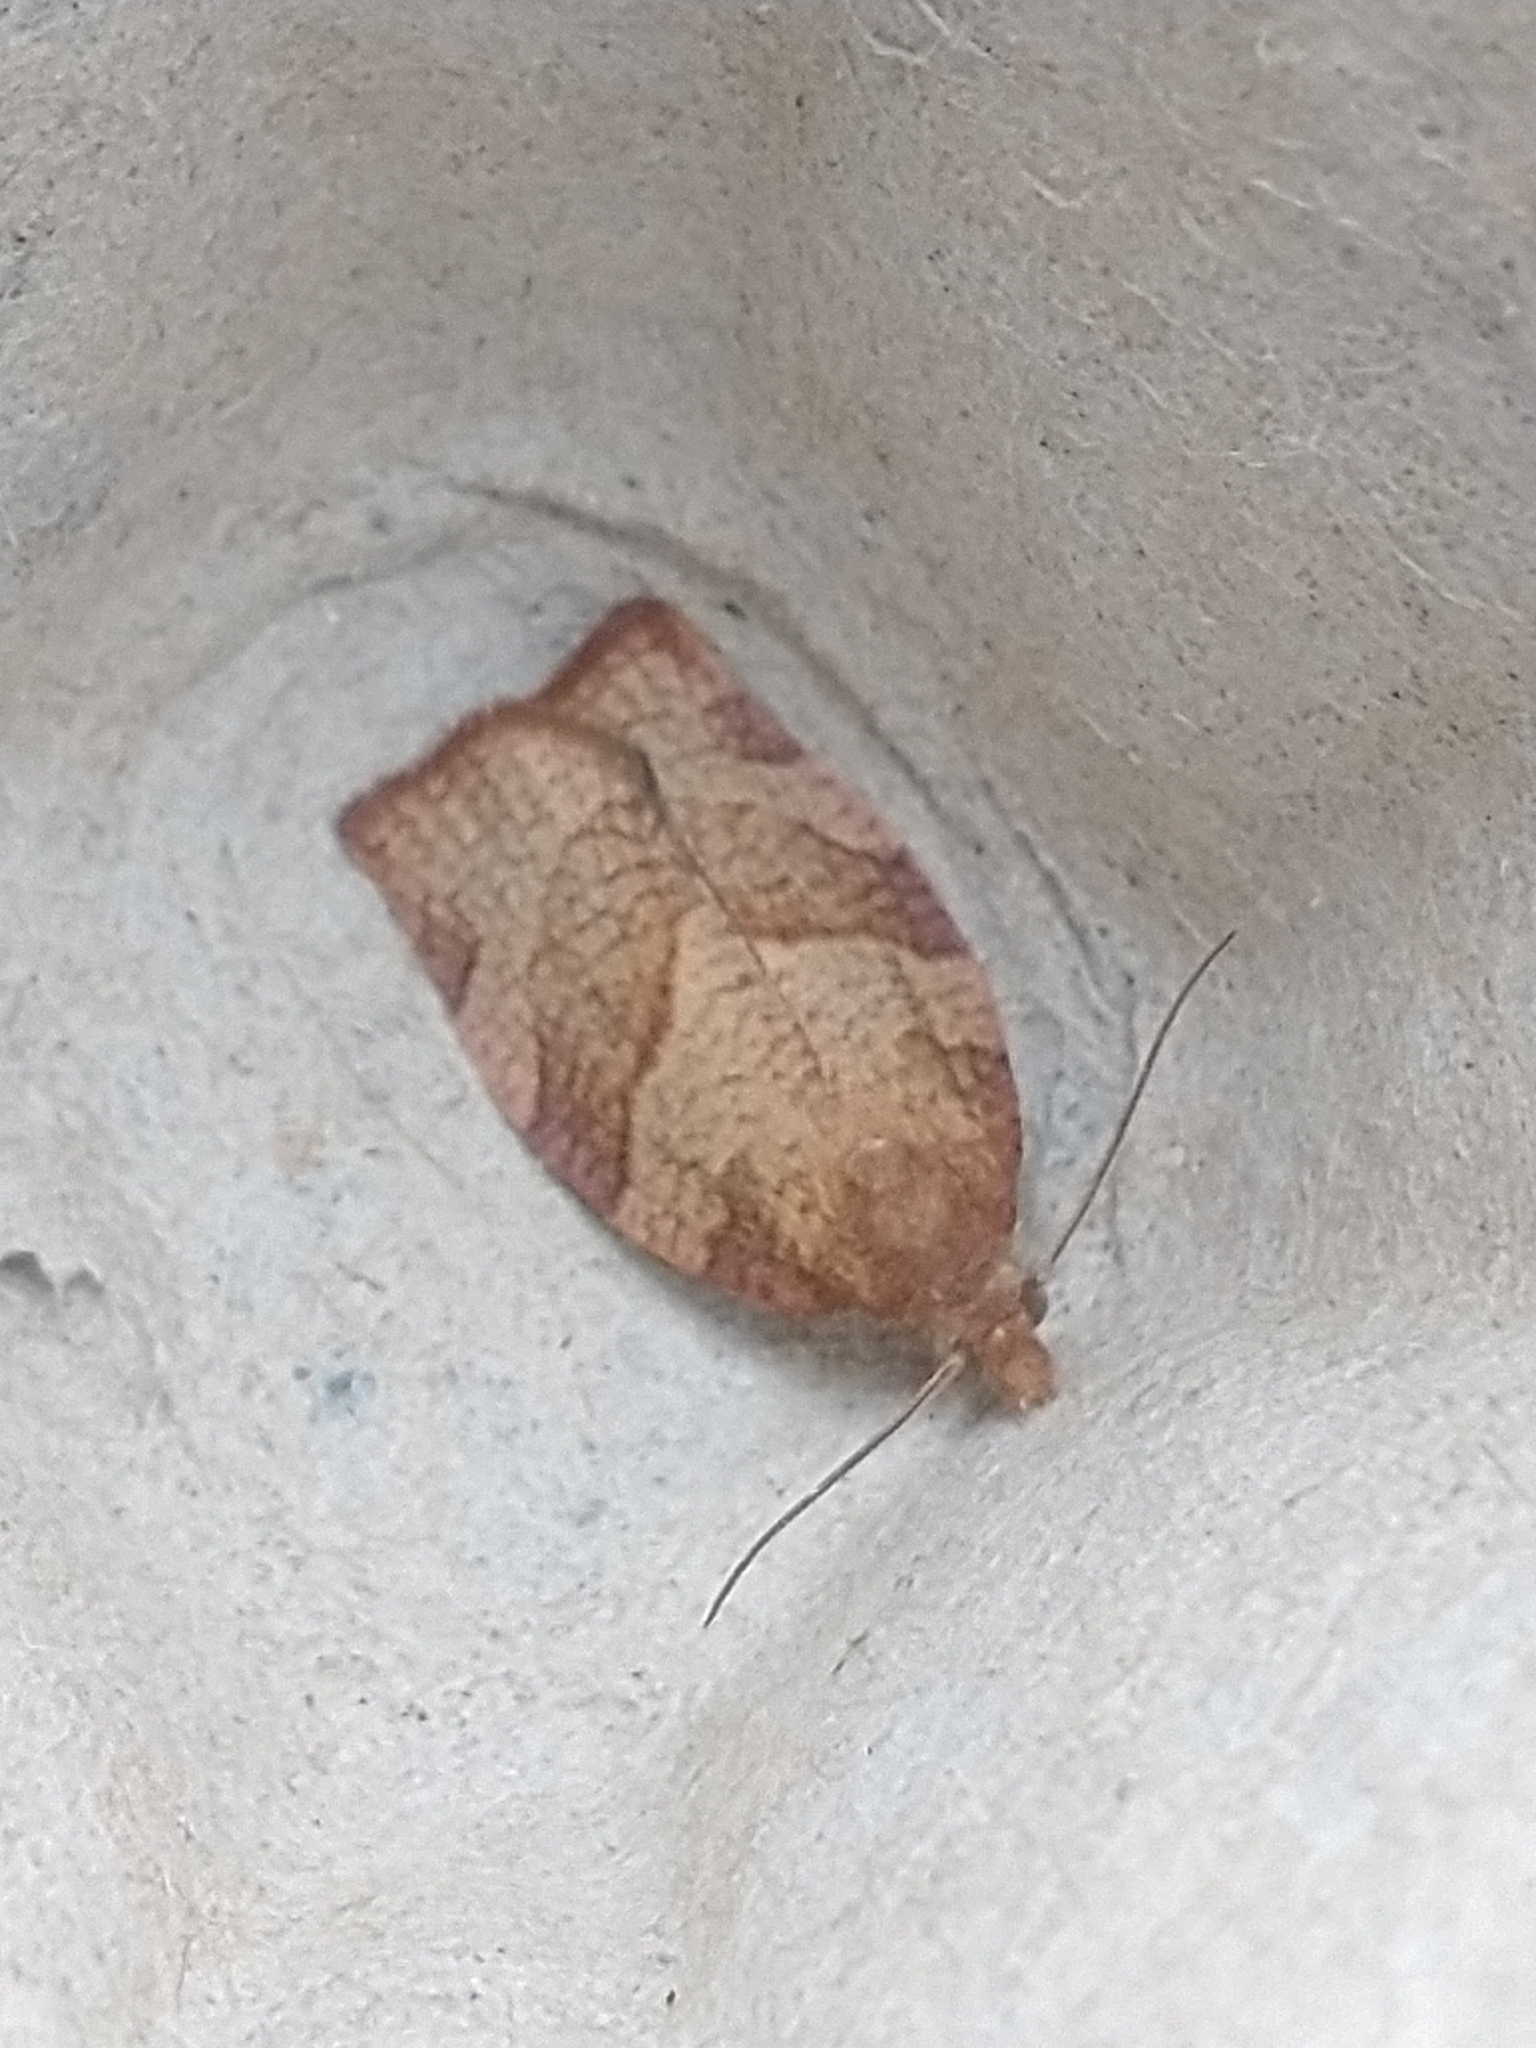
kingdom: Animalia
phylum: Arthropoda
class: Insecta
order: Lepidoptera
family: Tortricidae
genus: Pandemis
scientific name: Pandemis heparana
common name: Dark fruit-tree tortrix
